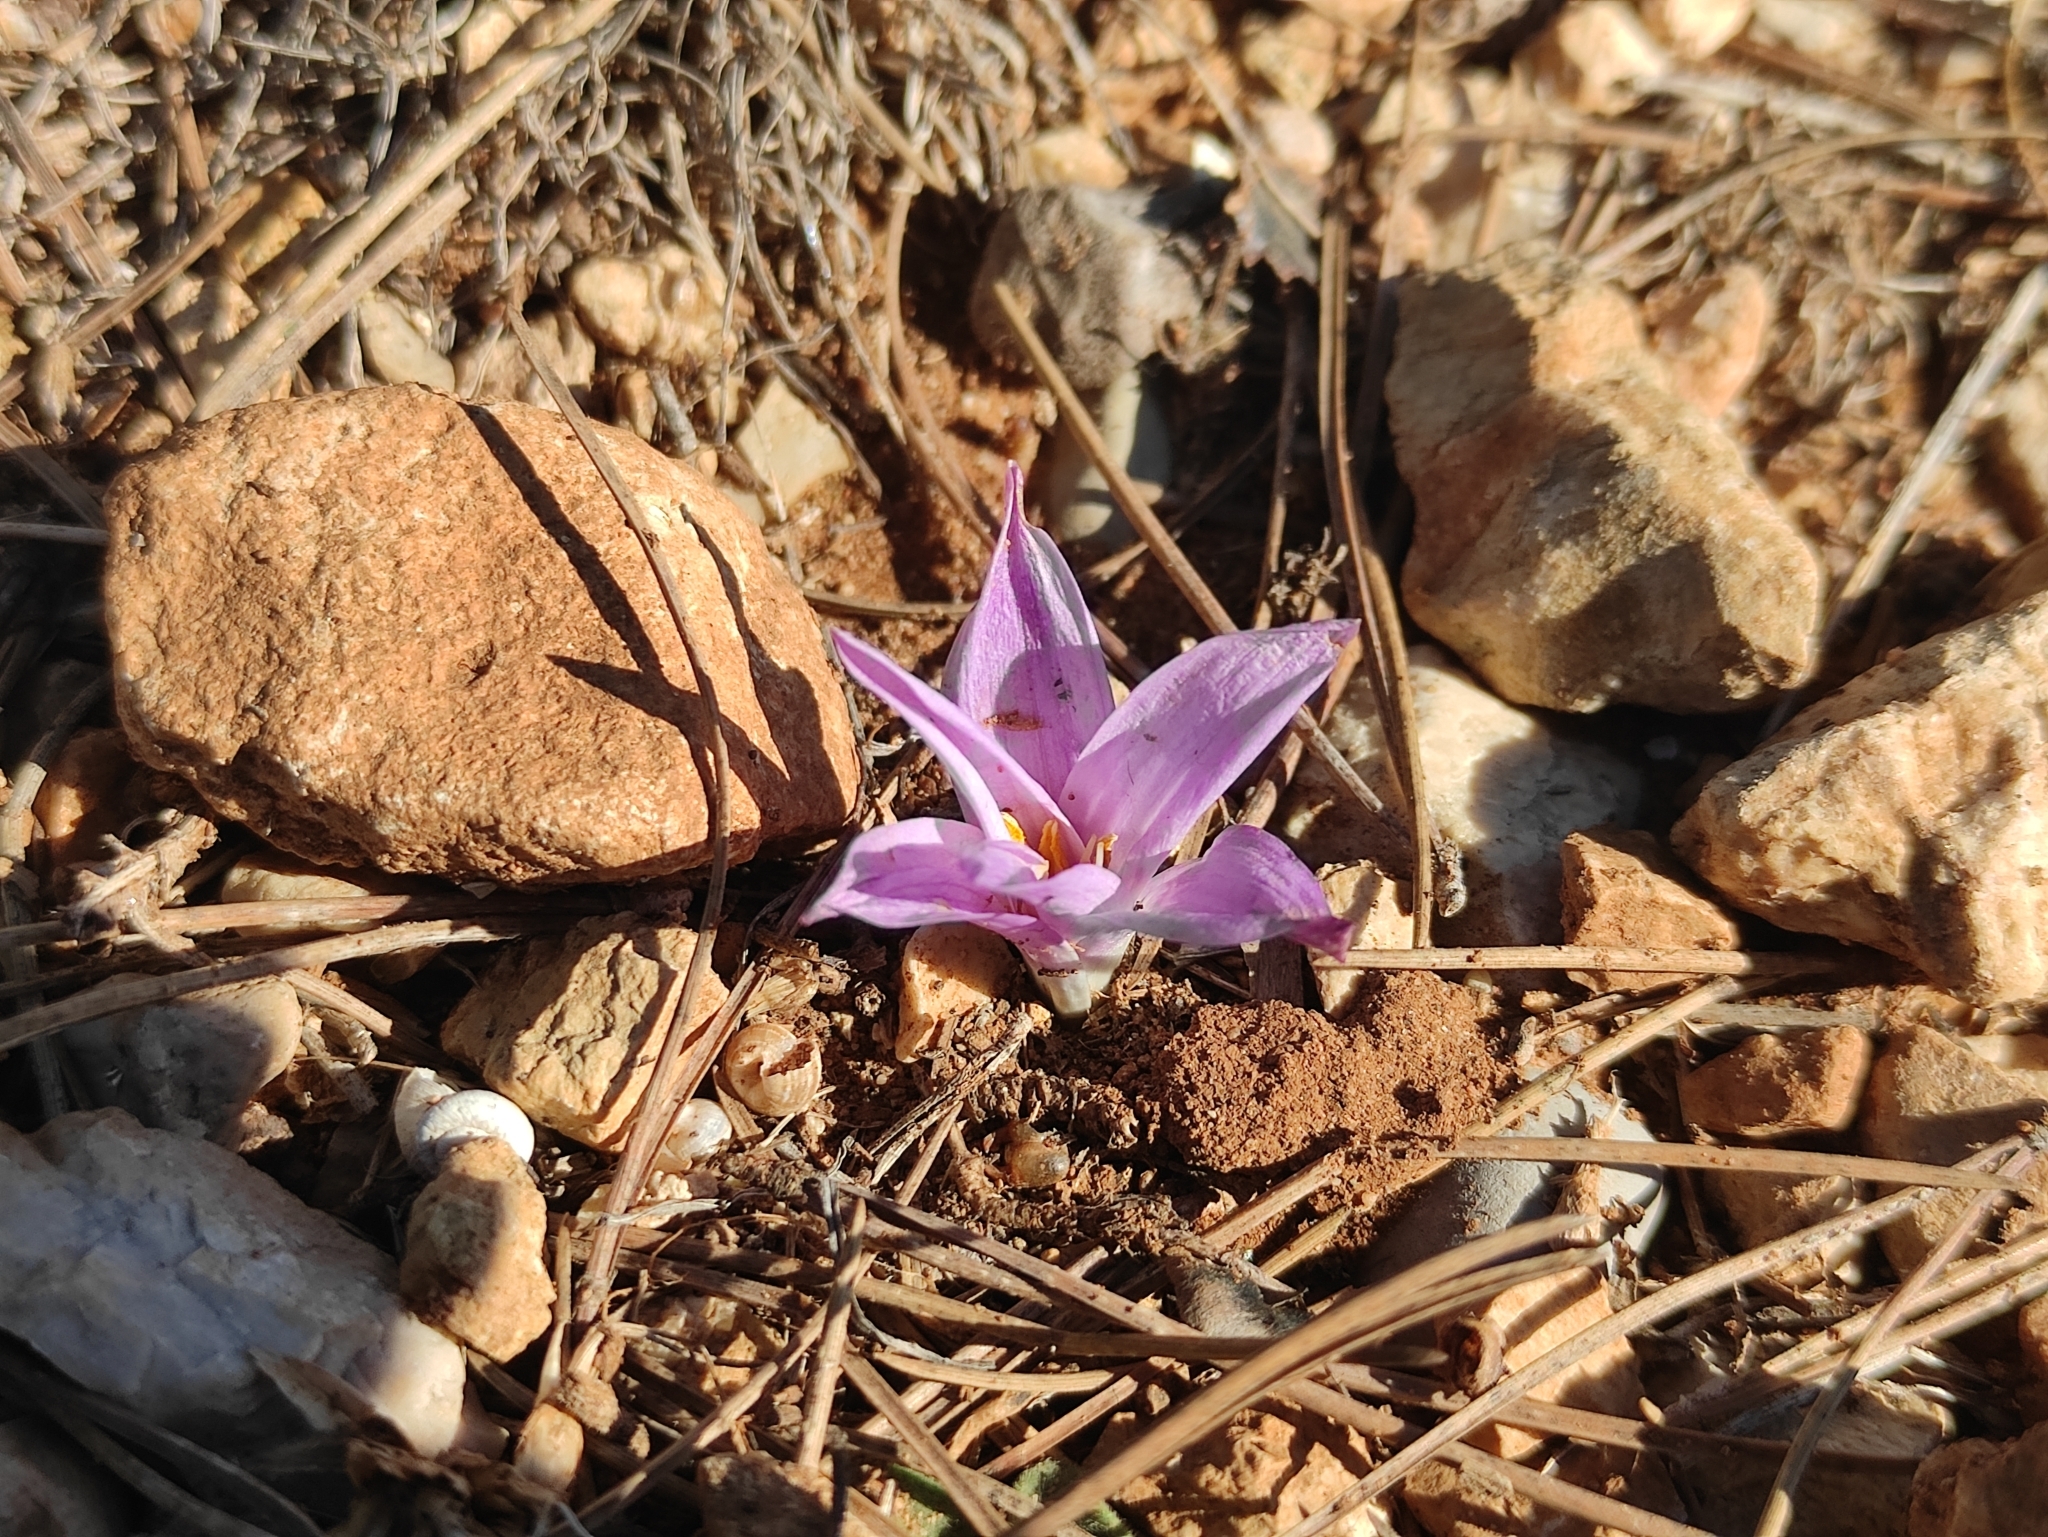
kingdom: Plantae
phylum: Tracheophyta
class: Liliopsida
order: Liliales
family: Colchicaceae
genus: Colchicum
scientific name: Colchicum filifolium
